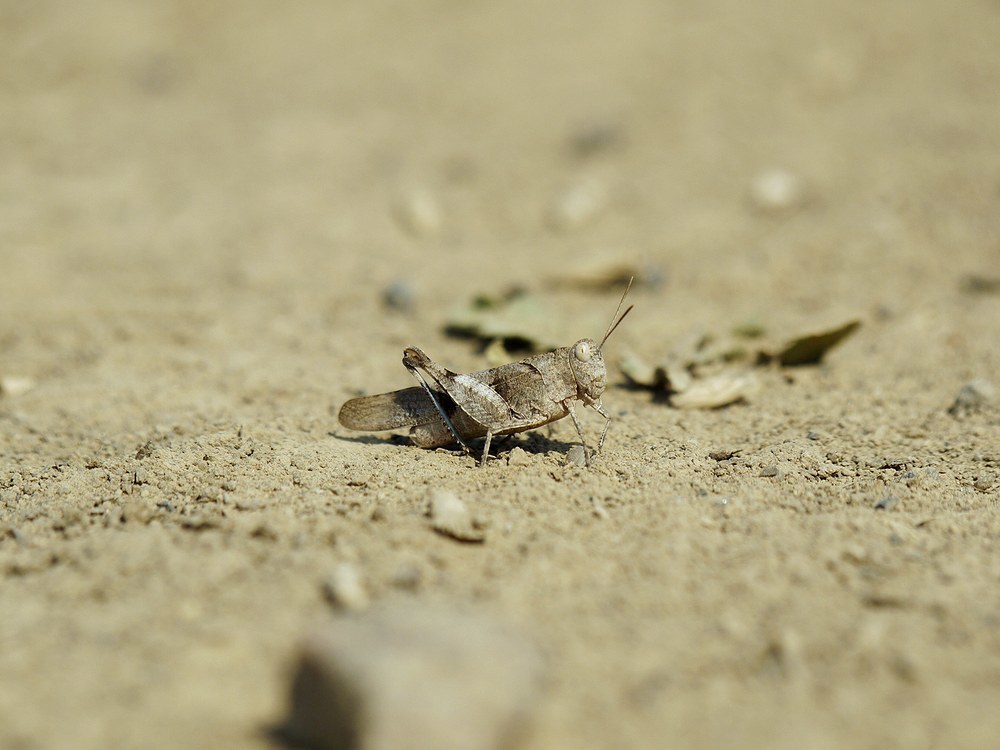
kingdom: Animalia
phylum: Arthropoda
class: Insecta
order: Orthoptera
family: Acrididae
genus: Oedipoda
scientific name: Oedipoda caerulescens
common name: Blue-winged grasshopper
